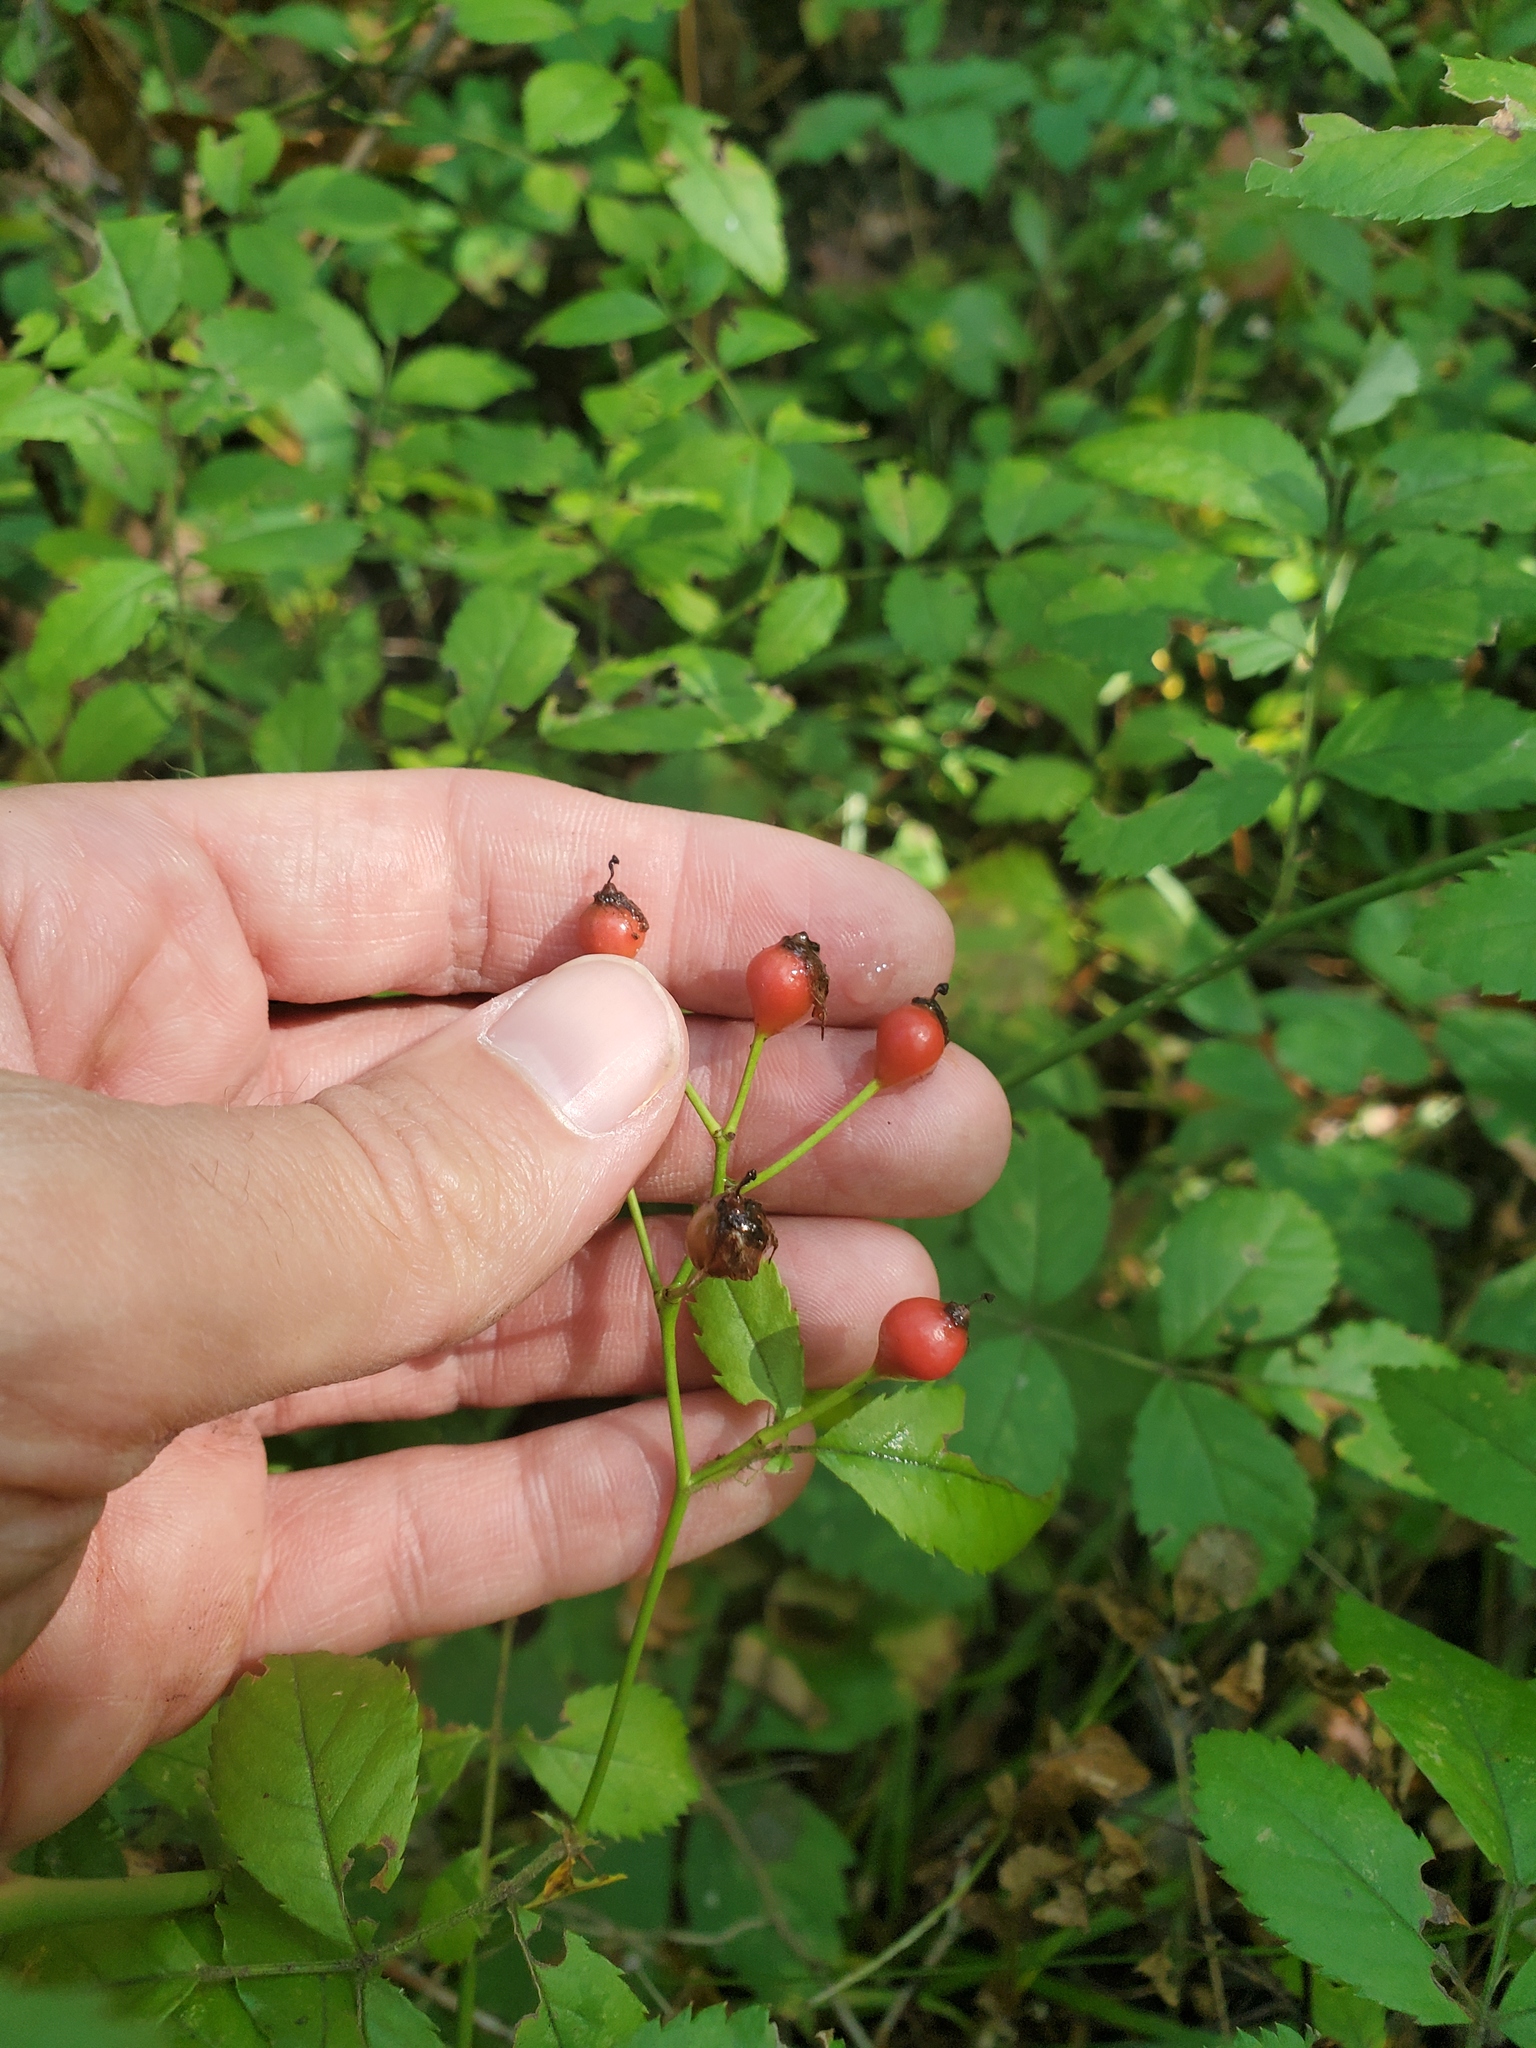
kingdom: Plantae
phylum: Tracheophyta
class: Magnoliopsida
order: Rosales
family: Rosaceae
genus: Rosa
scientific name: Rosa multiflora
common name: Multiflora rose
